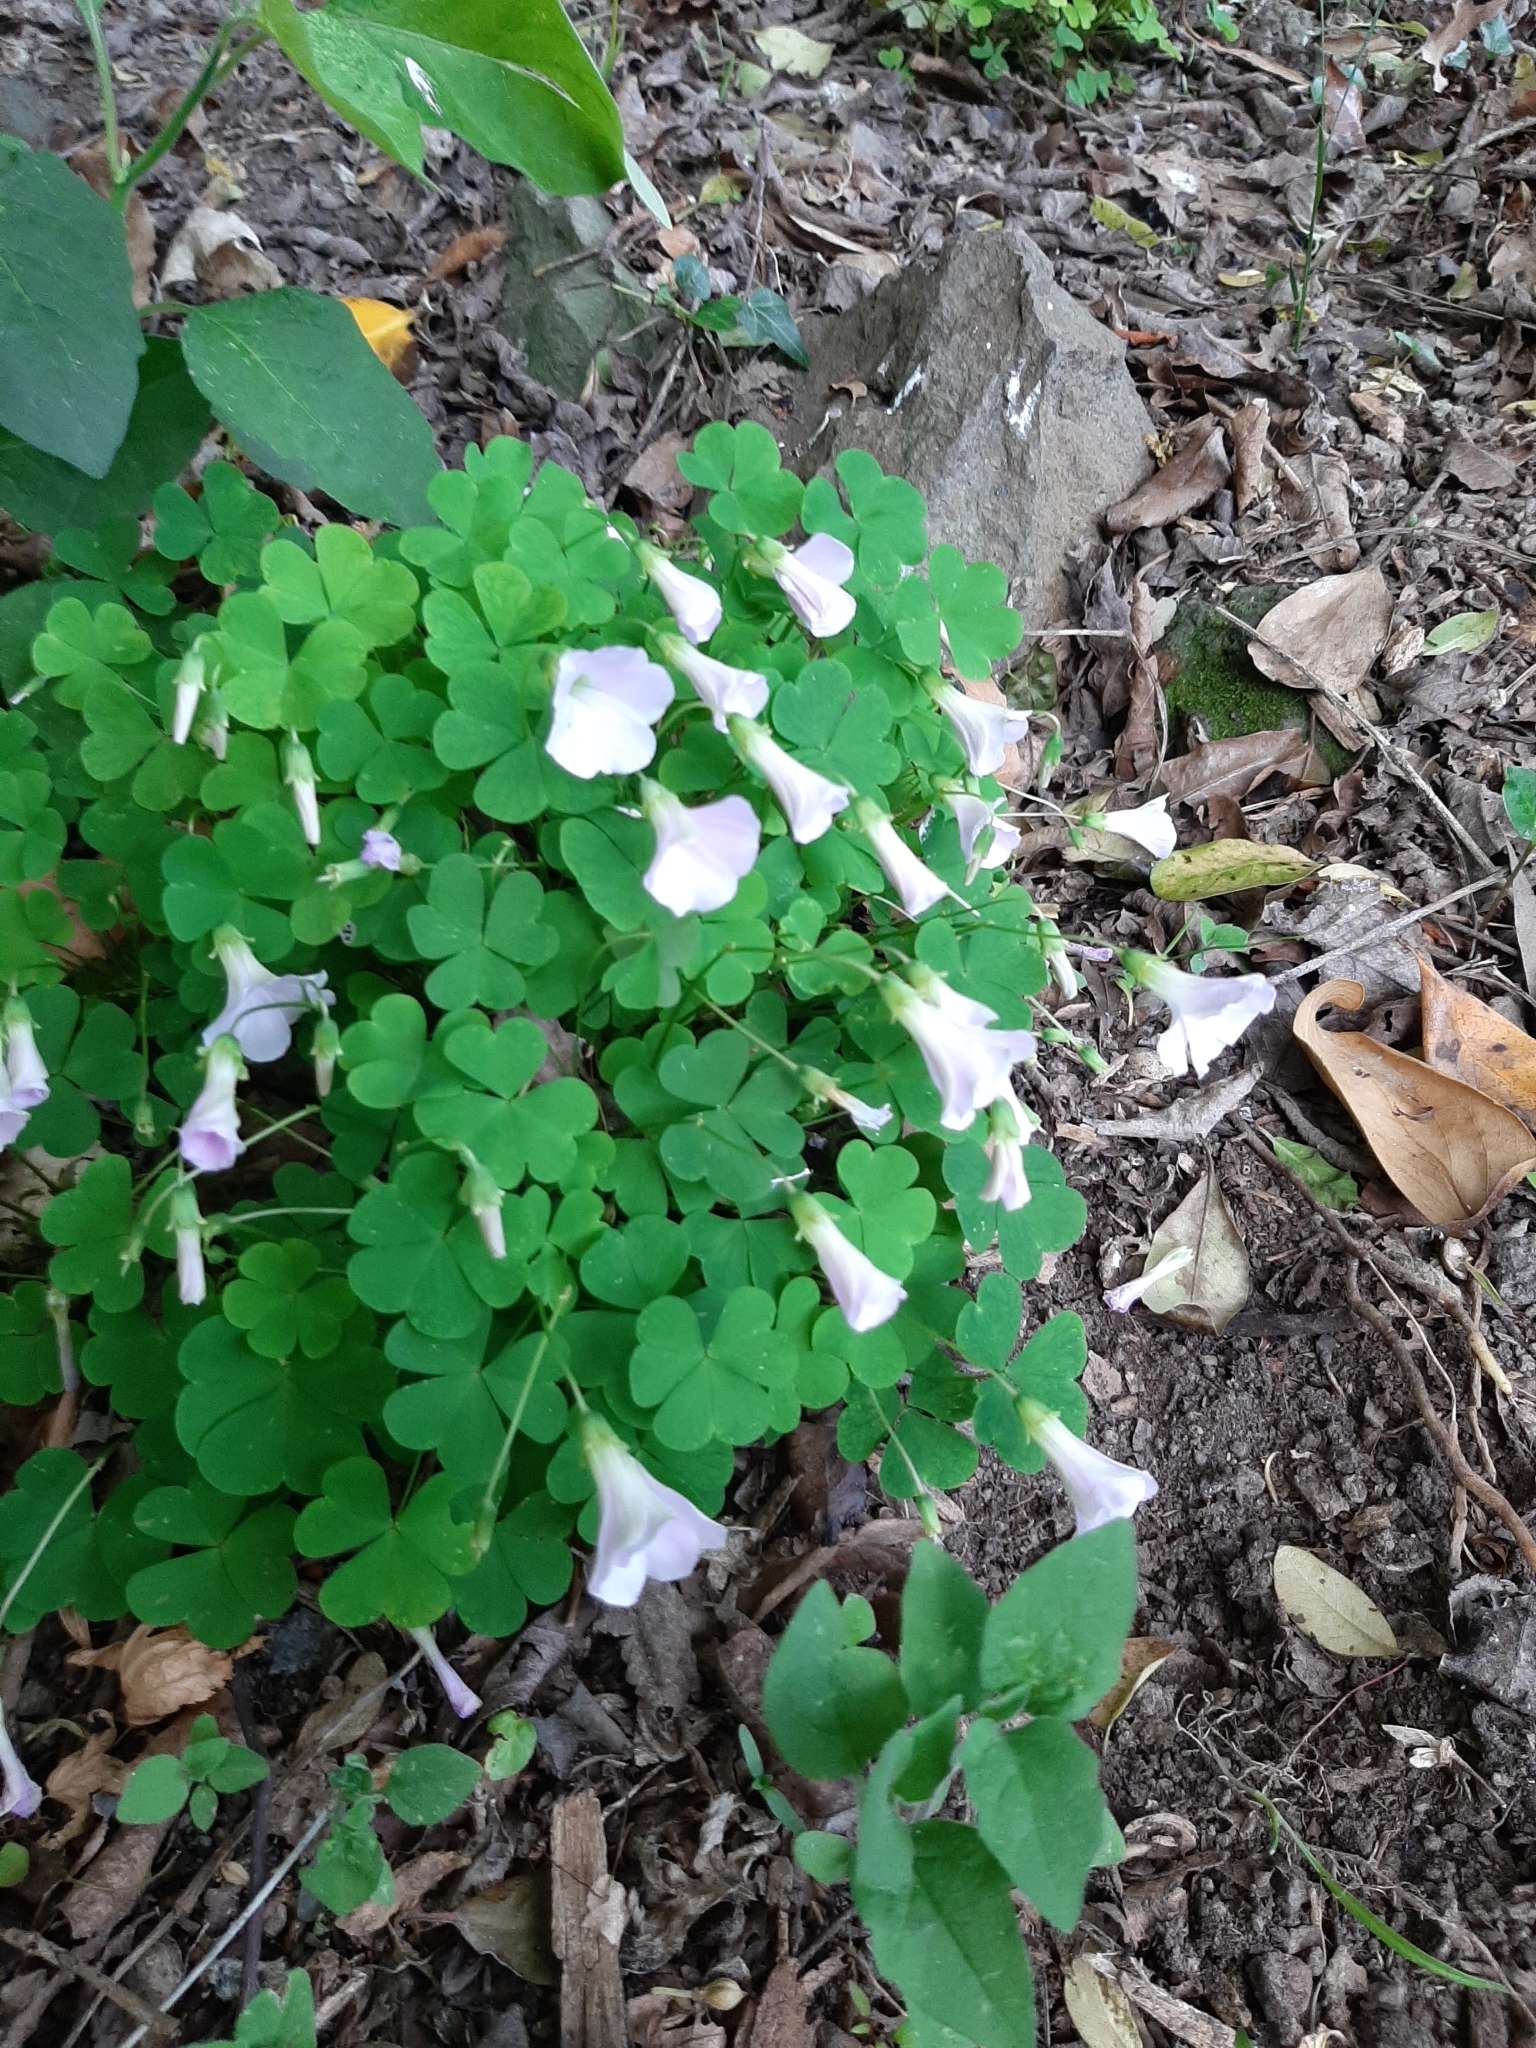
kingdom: Plantae
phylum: Tracheophyta
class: Magnoliopsida
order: Oxalidales
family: Oxalidaceae
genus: Oxalis
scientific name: Oxalis incarnata
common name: Pale pink-sorrel
